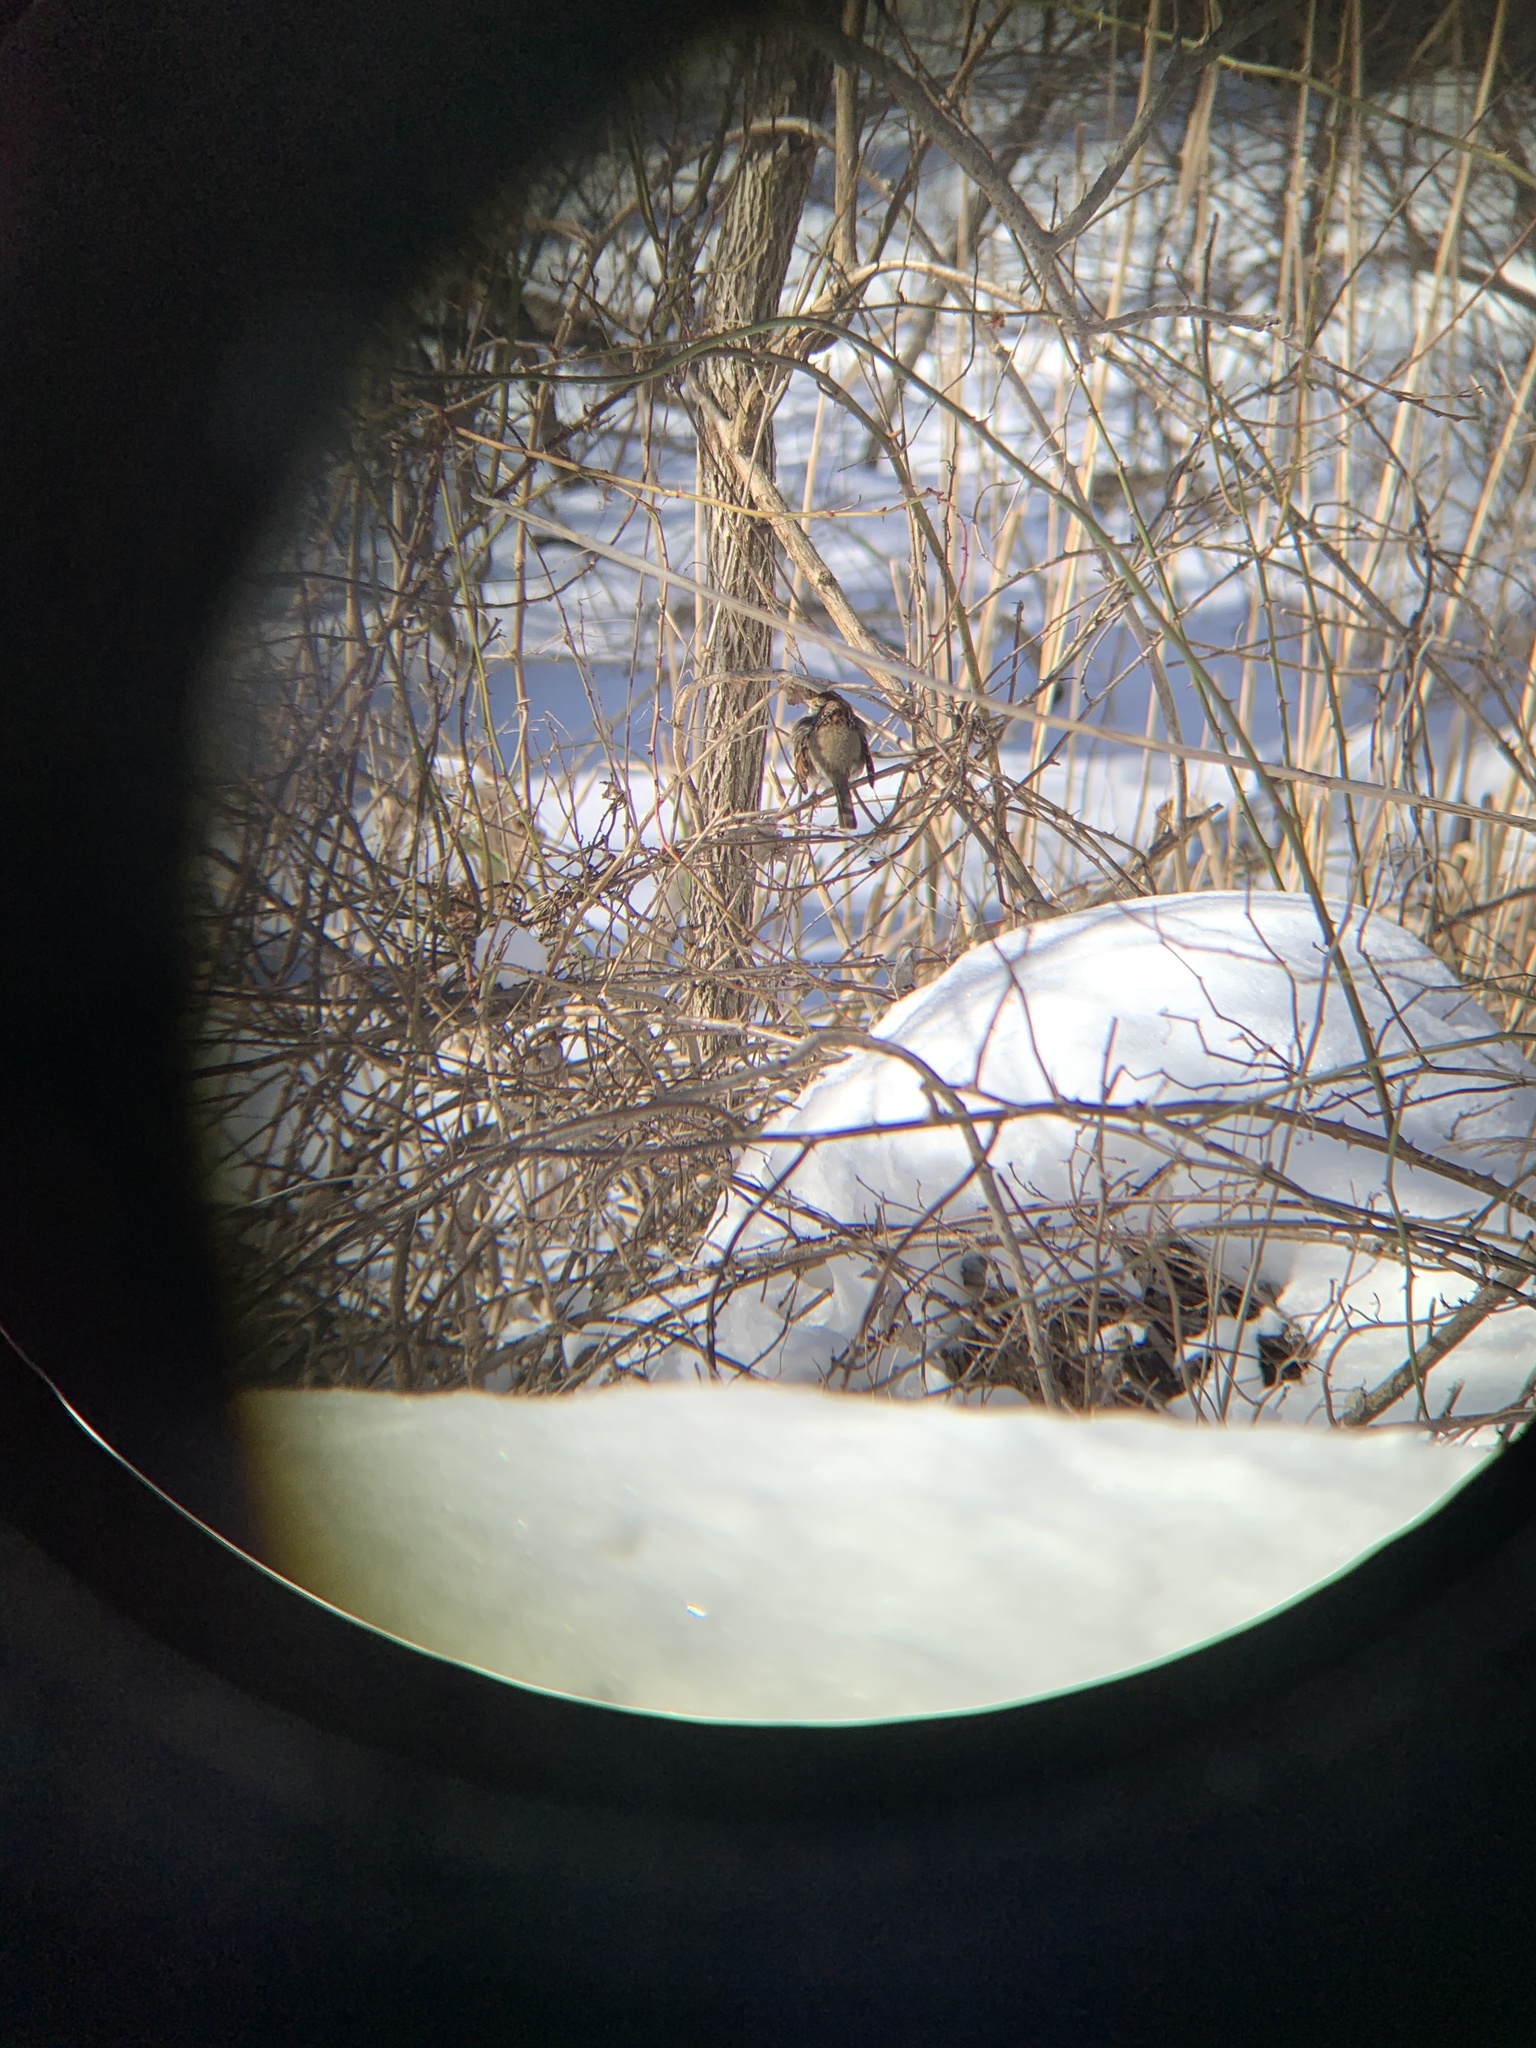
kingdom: Animalia
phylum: Chordata
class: Aves
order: Passeriformes
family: Passerellidae
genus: Zonotrichia
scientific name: Zonotrichia albicollis
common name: White-throated sparrow
